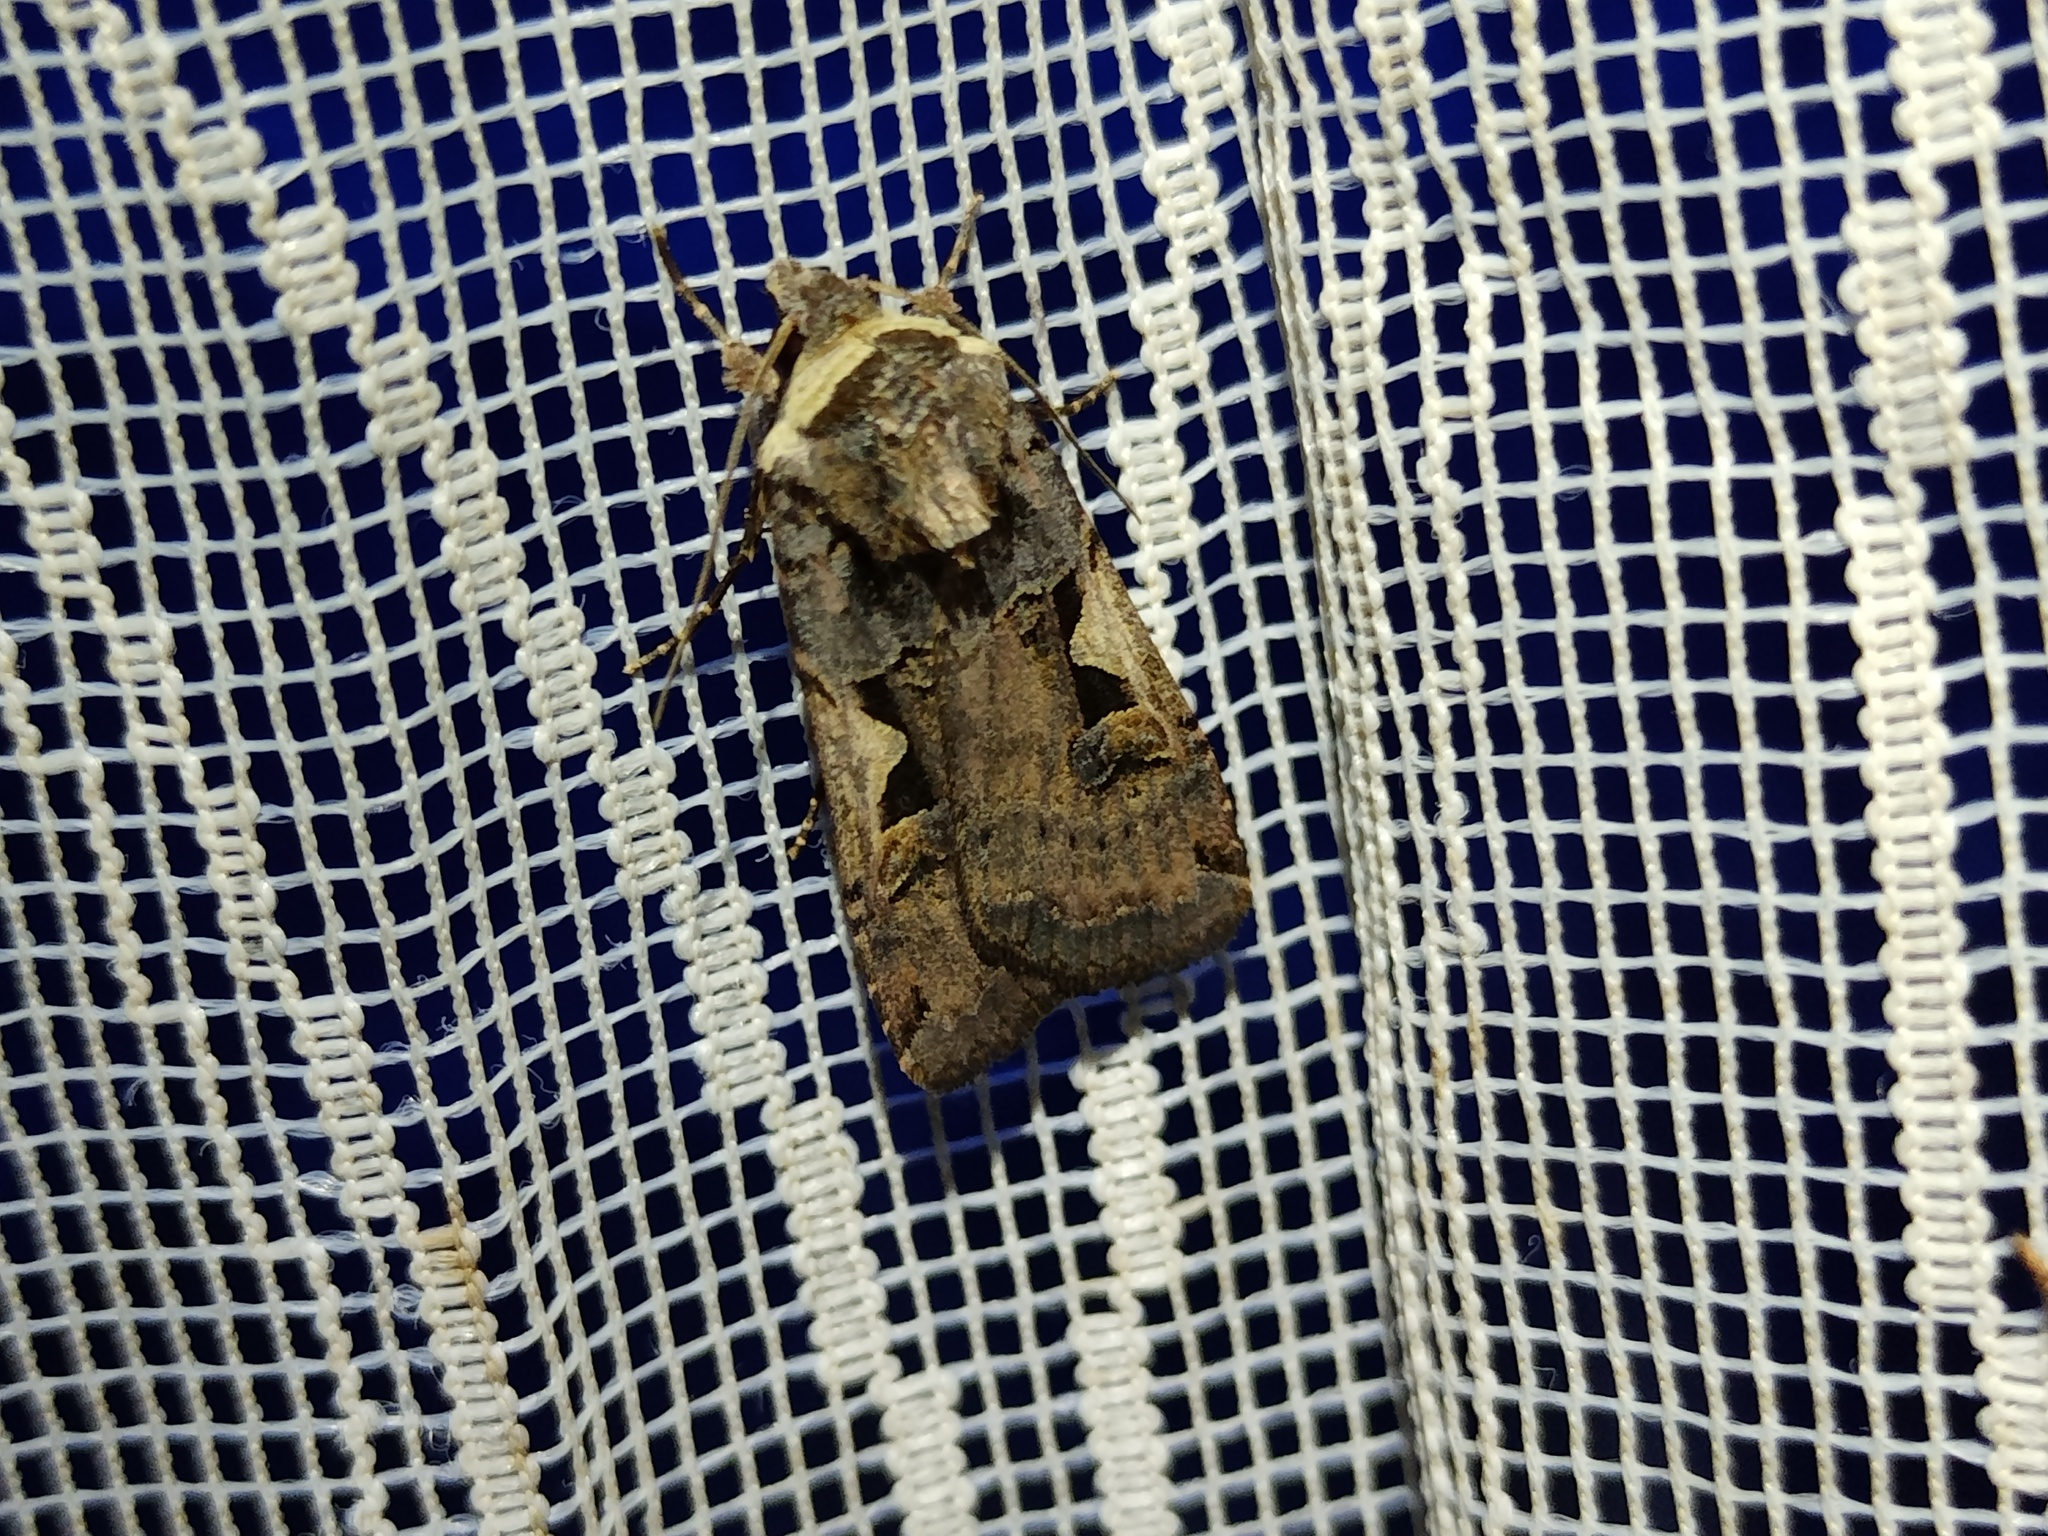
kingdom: Animalia
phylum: Arthropoda
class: Insecta
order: Lepidoptera
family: Noctuidae
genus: Xestia
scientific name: Xestia c-nigrum
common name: Setaceous hebrew character
